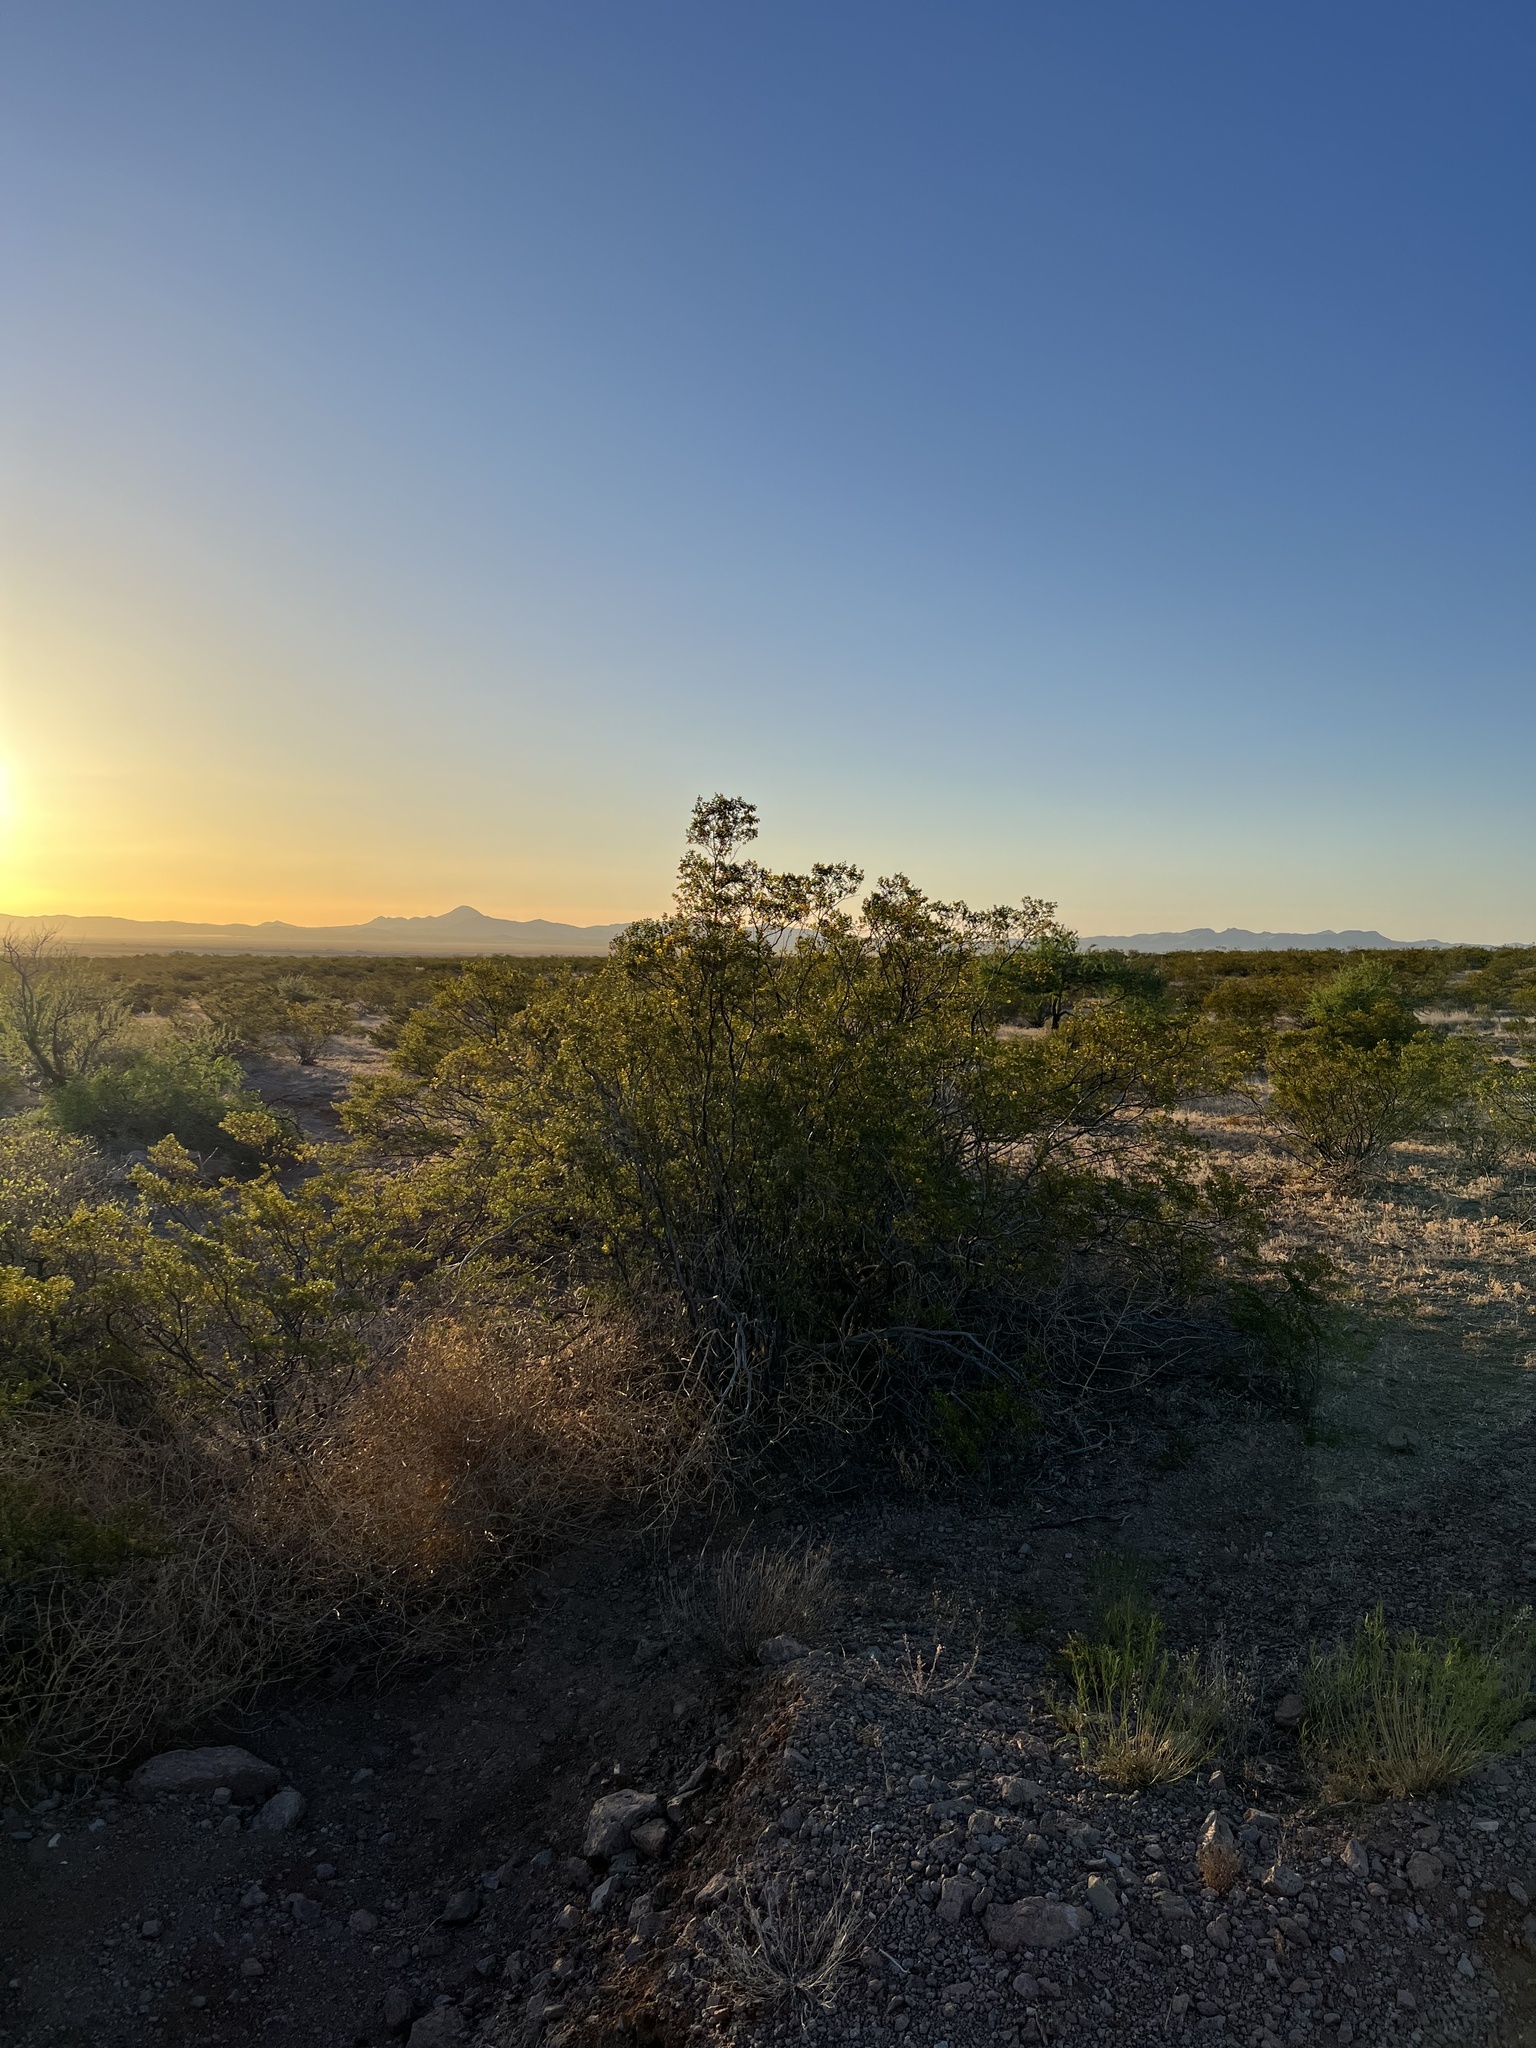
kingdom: Plantae
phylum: Tracheophyta
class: Magnoliopsida
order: Zygophyllales
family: Zygophyllaceae
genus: Larrea
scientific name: Larrea tridentata
